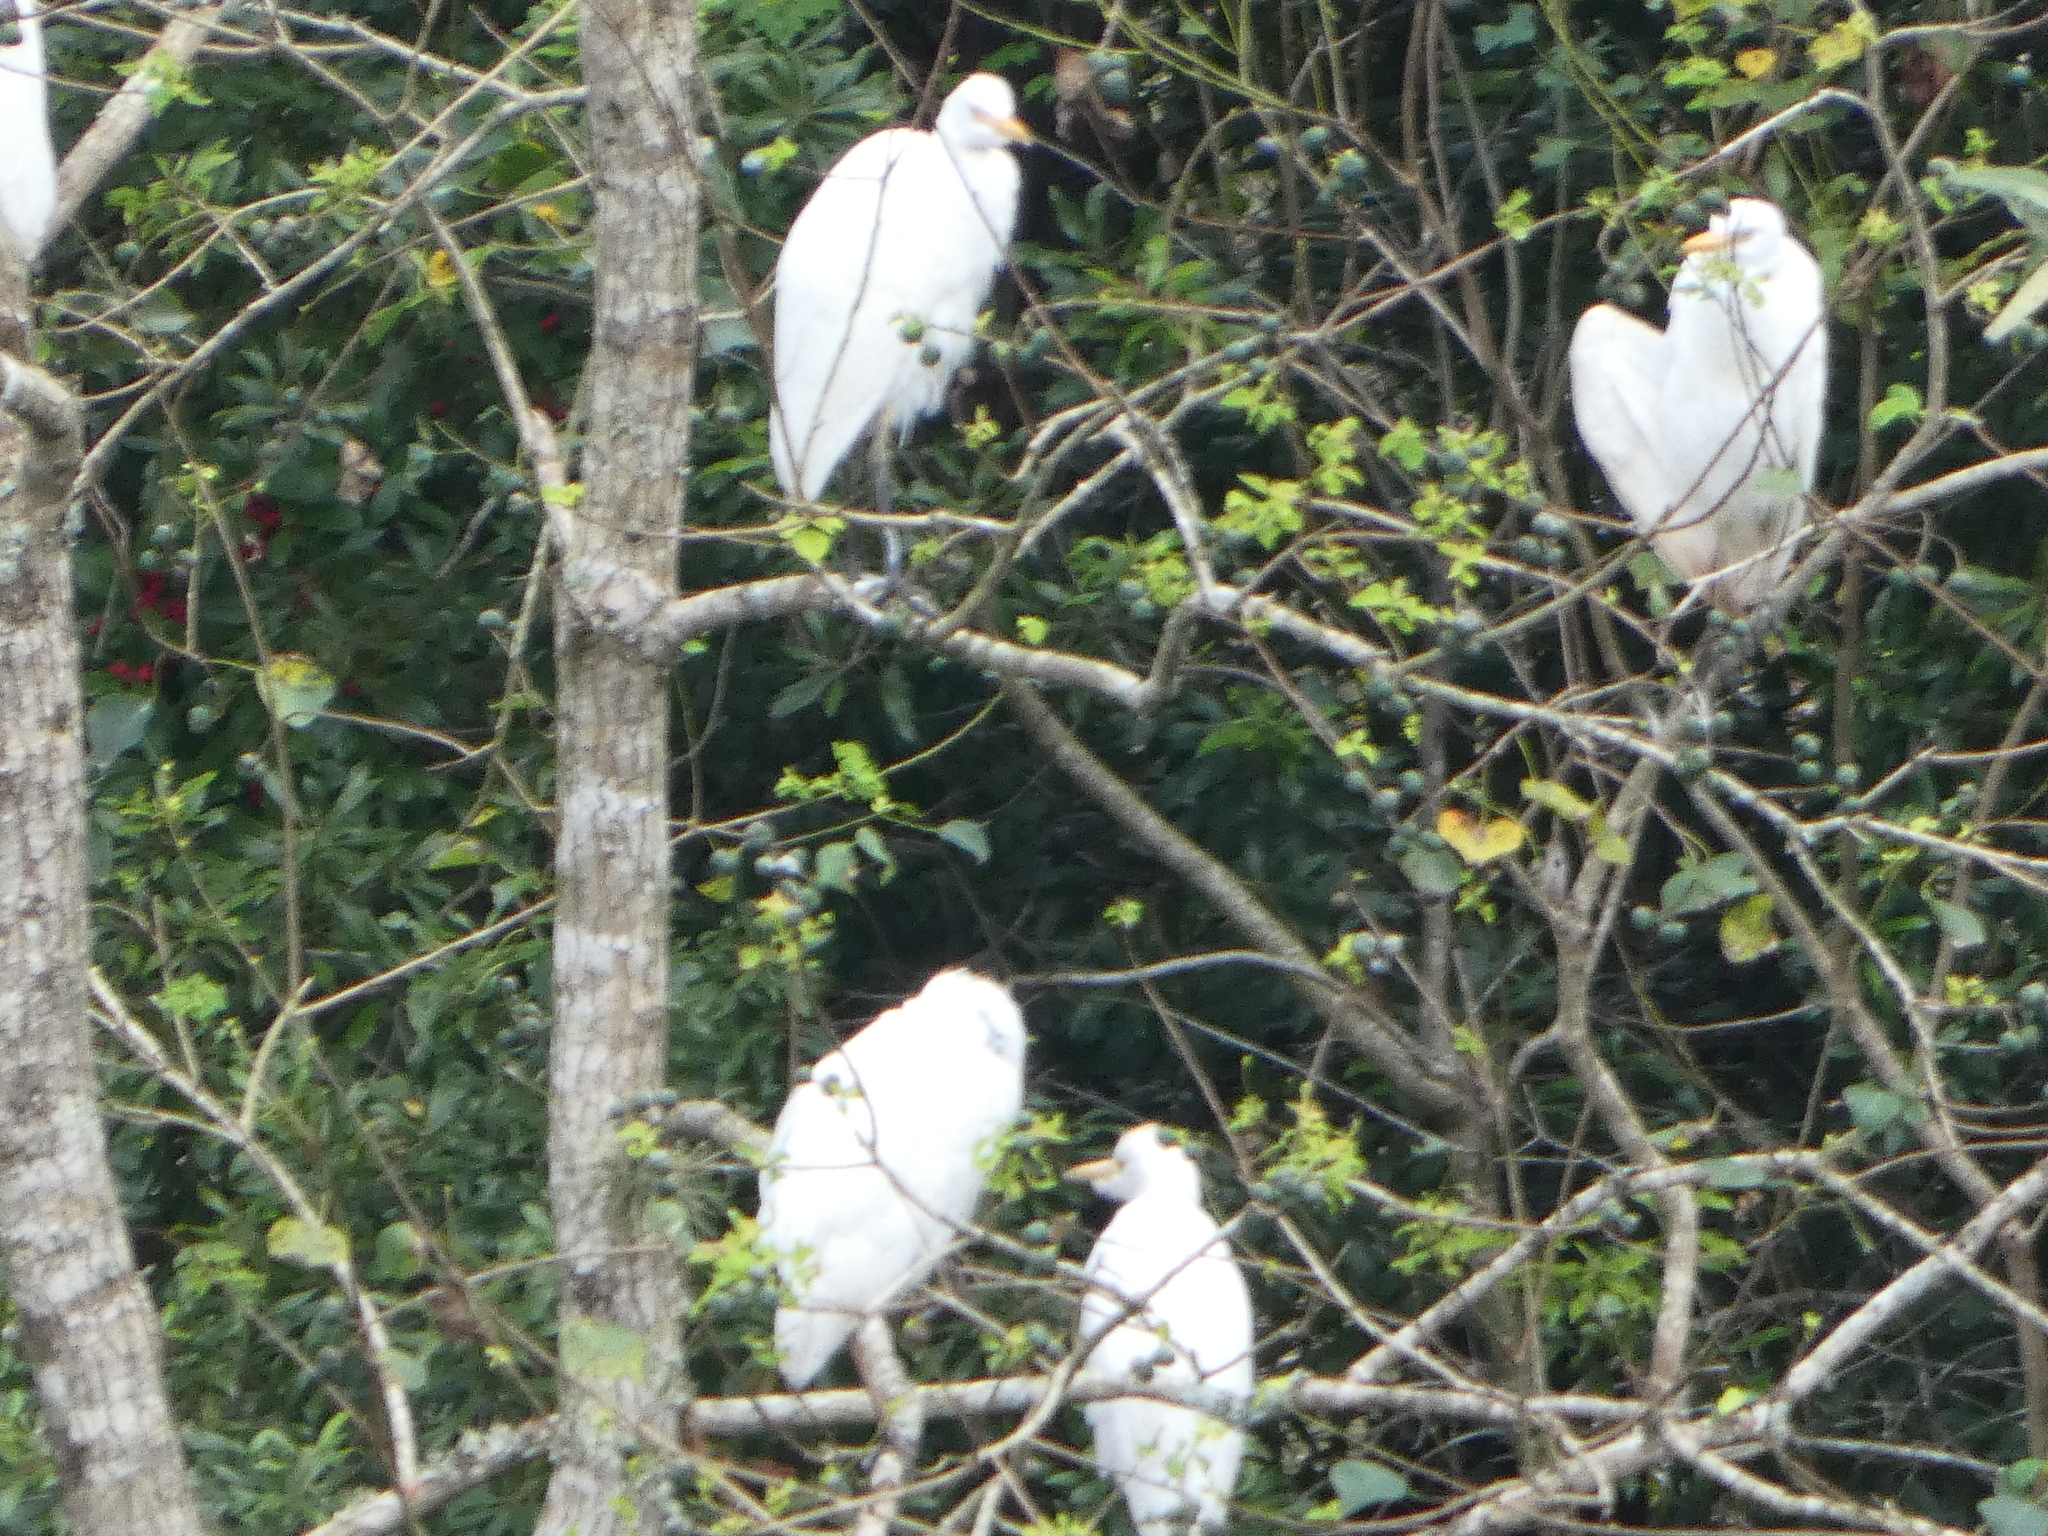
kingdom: Animalia
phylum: Chordata
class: Aves
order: Pelecaniformes
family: Ardeidae
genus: Bubulcus
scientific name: Bubulcus ibis
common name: Cattle egret
